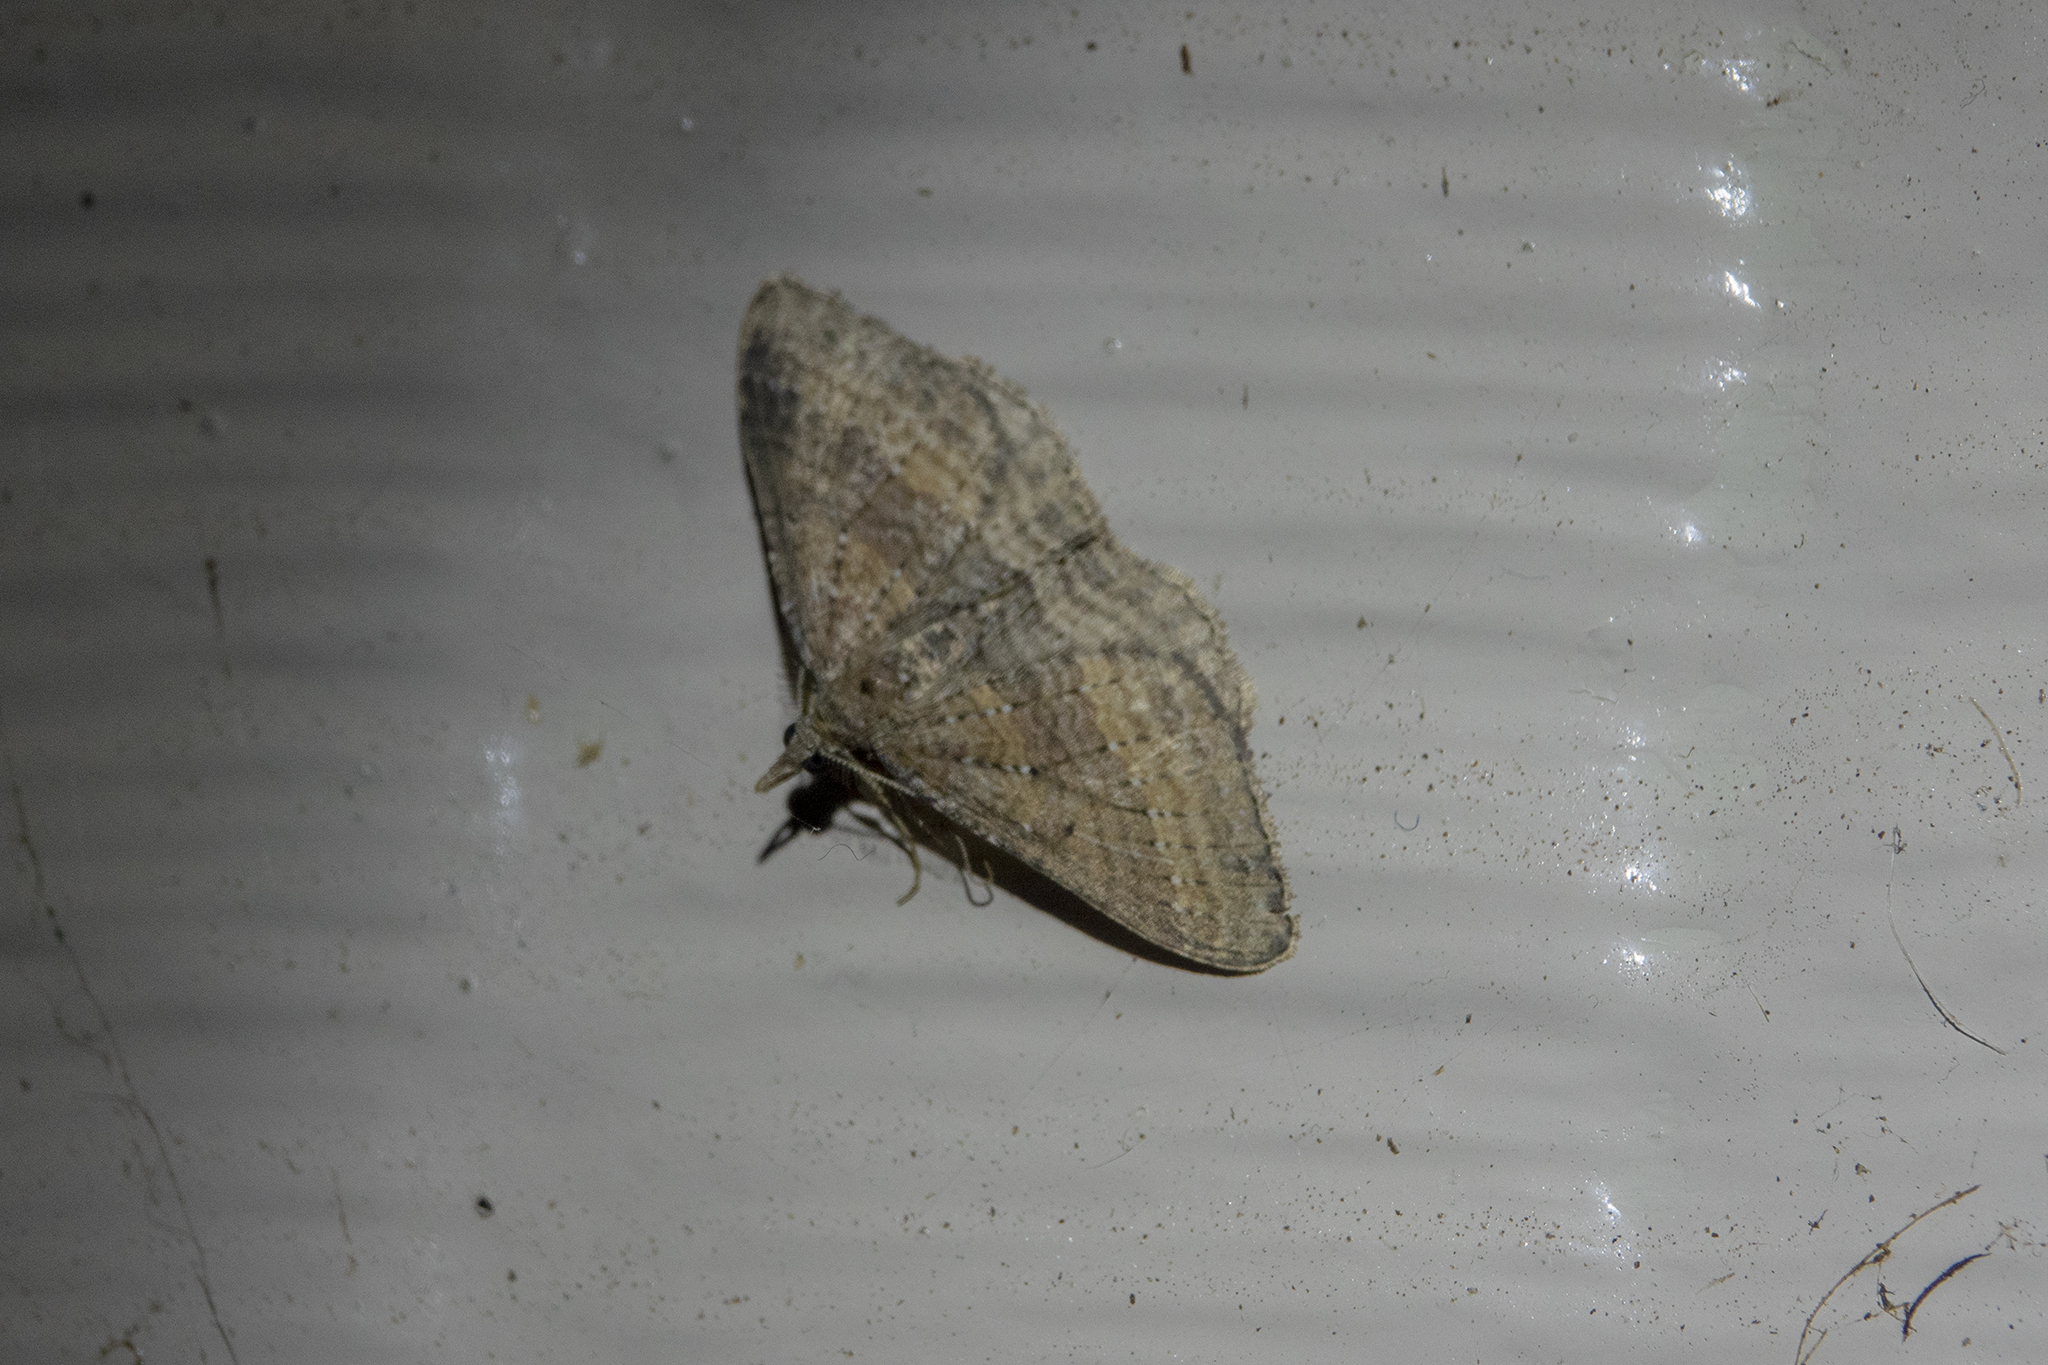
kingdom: Animalia
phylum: Arthropoda
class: Insecta
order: Lepidoptera
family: Geometridae
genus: Epyaxa
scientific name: Epyaxa venipunctata
